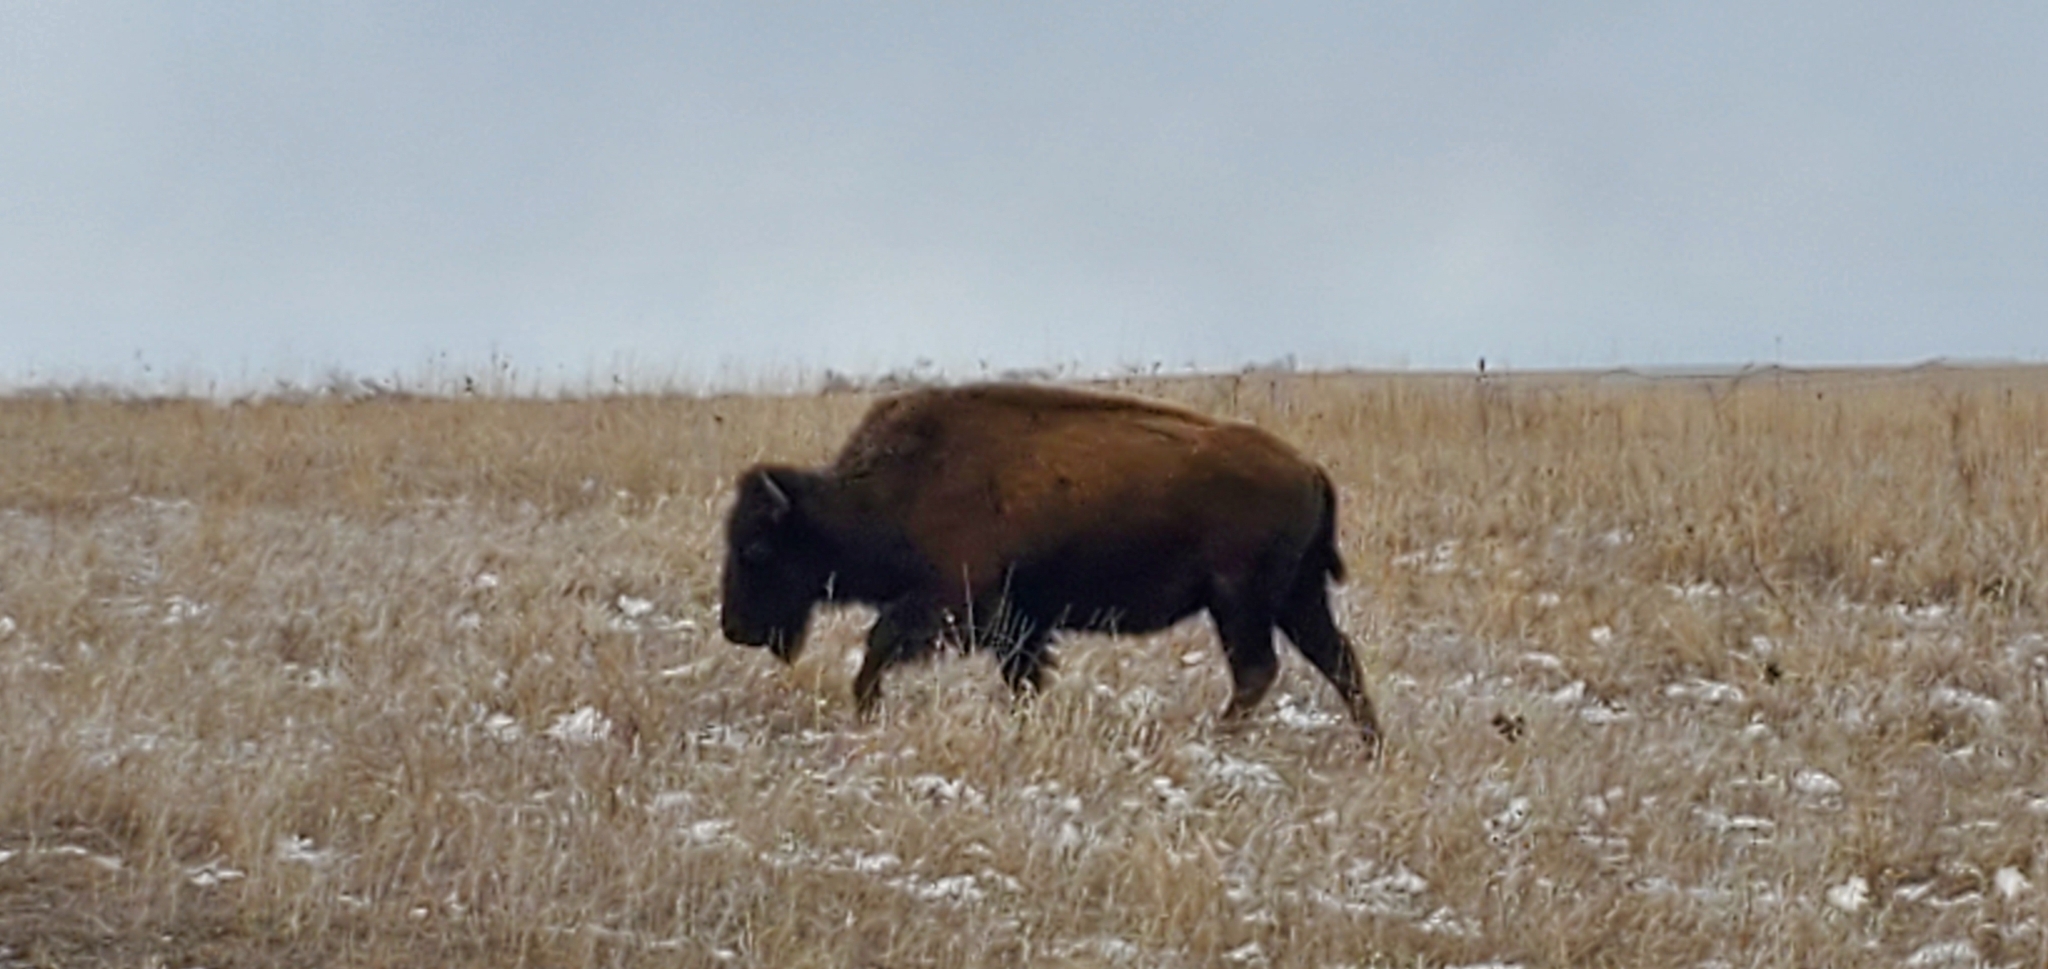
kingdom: Animalia
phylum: Chordata
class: Mammalia
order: Artiodactyla
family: Bovidae
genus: Bison
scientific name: Bison bison
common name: American bison
